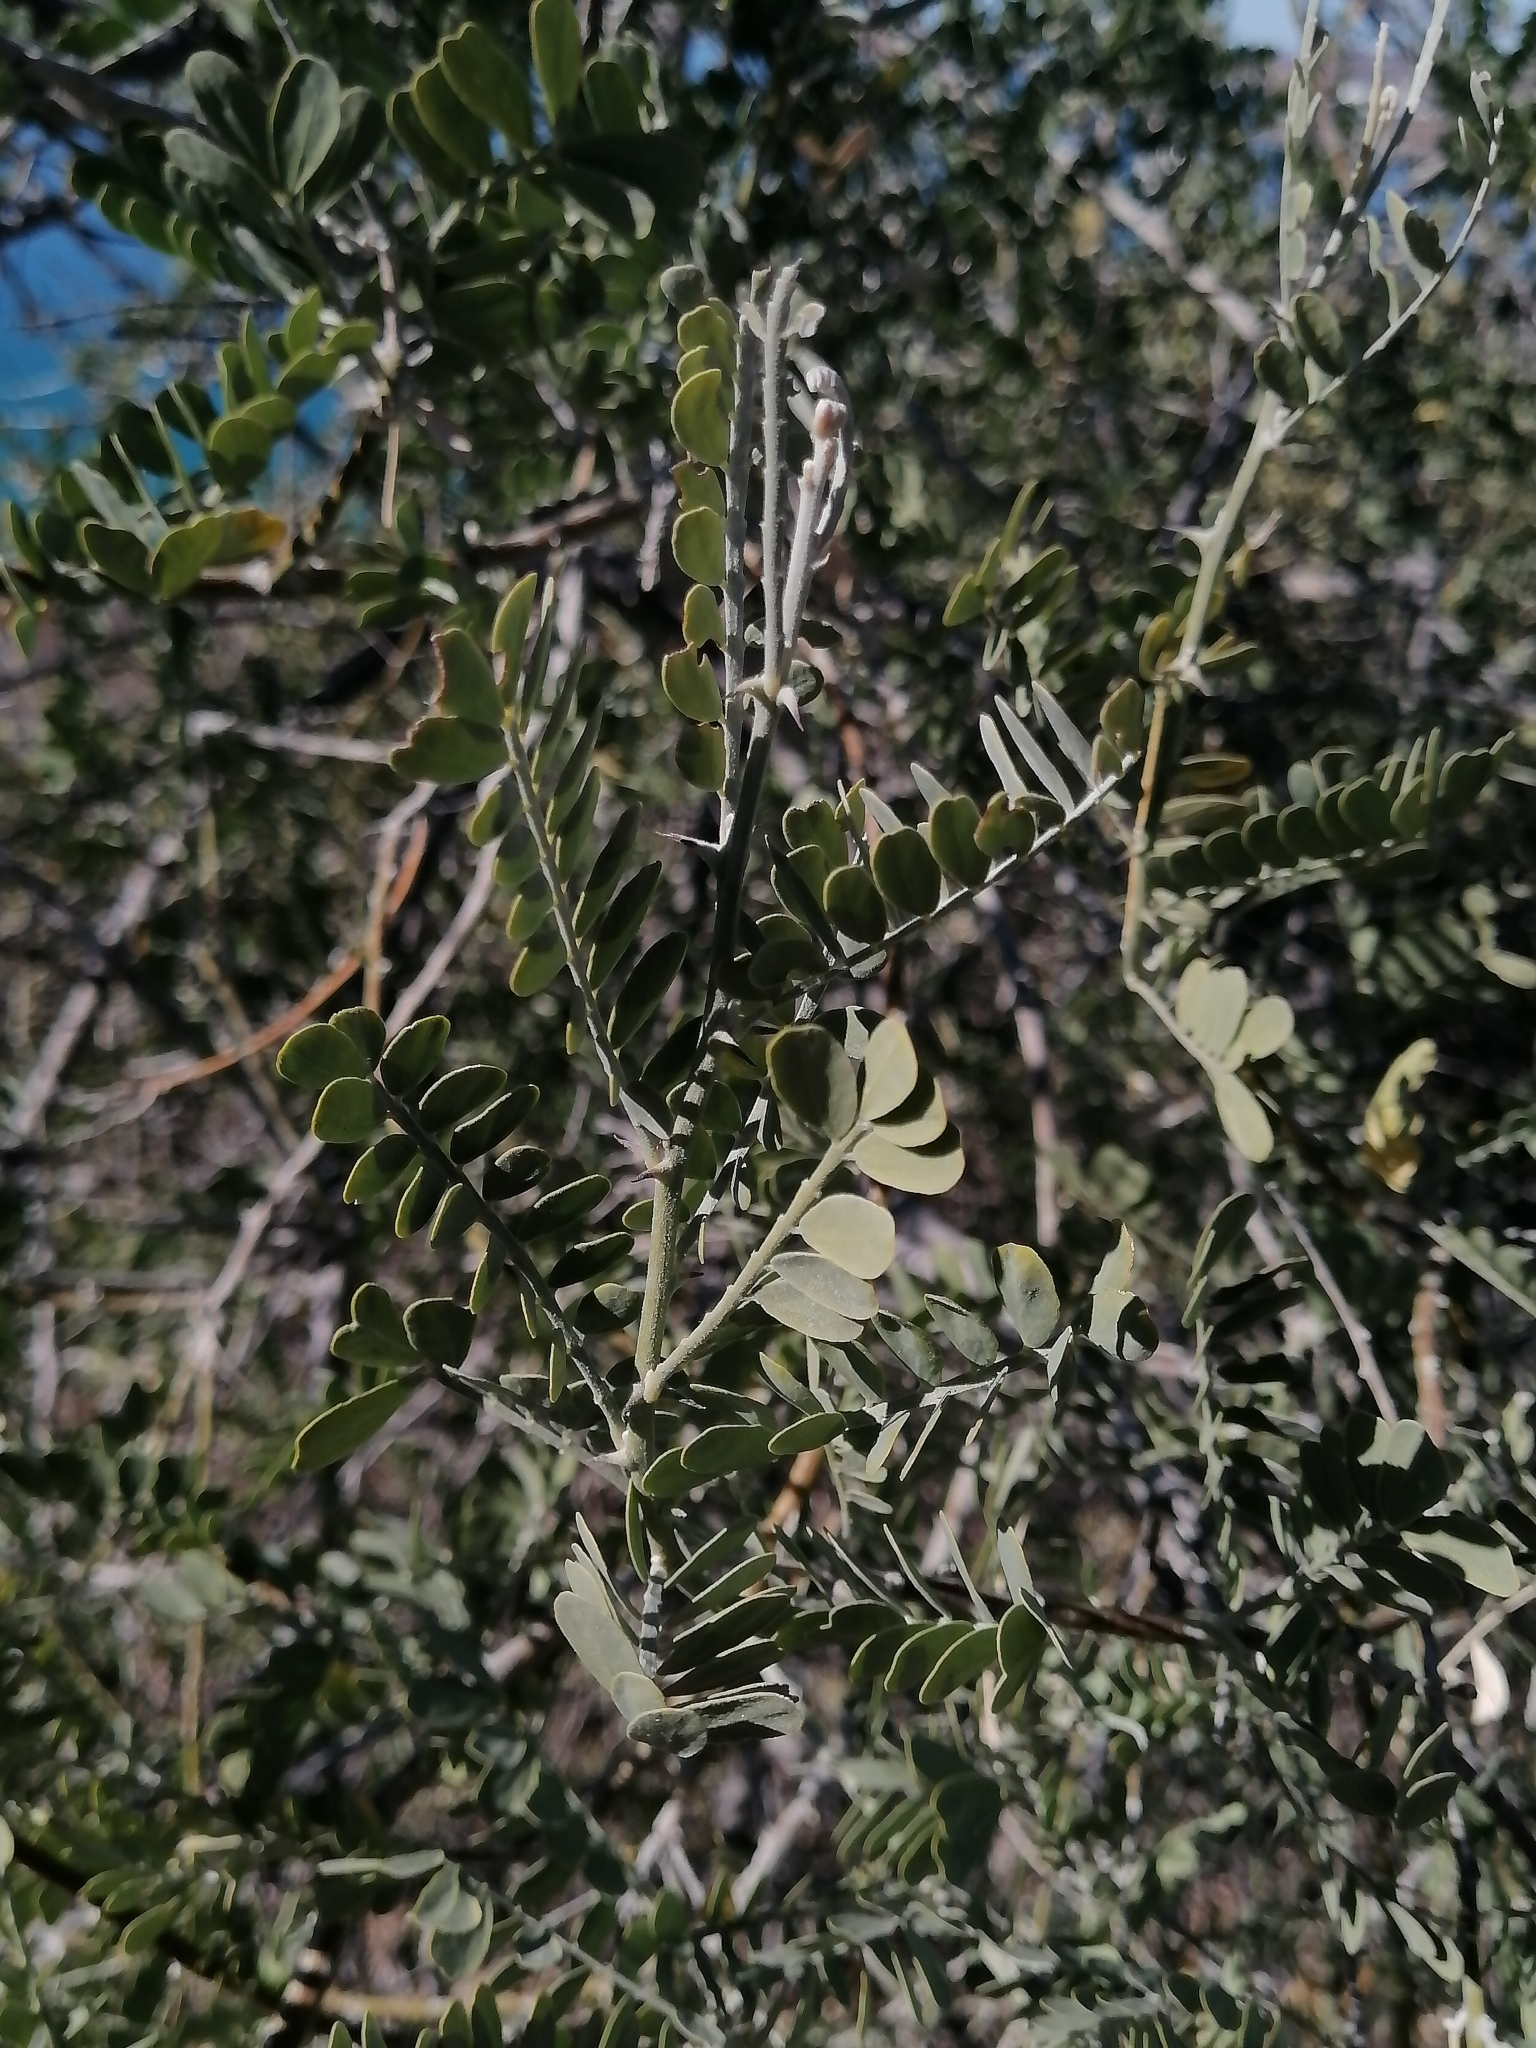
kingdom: Plantae
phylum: Tracheophyta
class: Magnoliopsida
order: Fabales
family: Fabaceae
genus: Olneya
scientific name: Olneya tesota
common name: Desert ironwood
